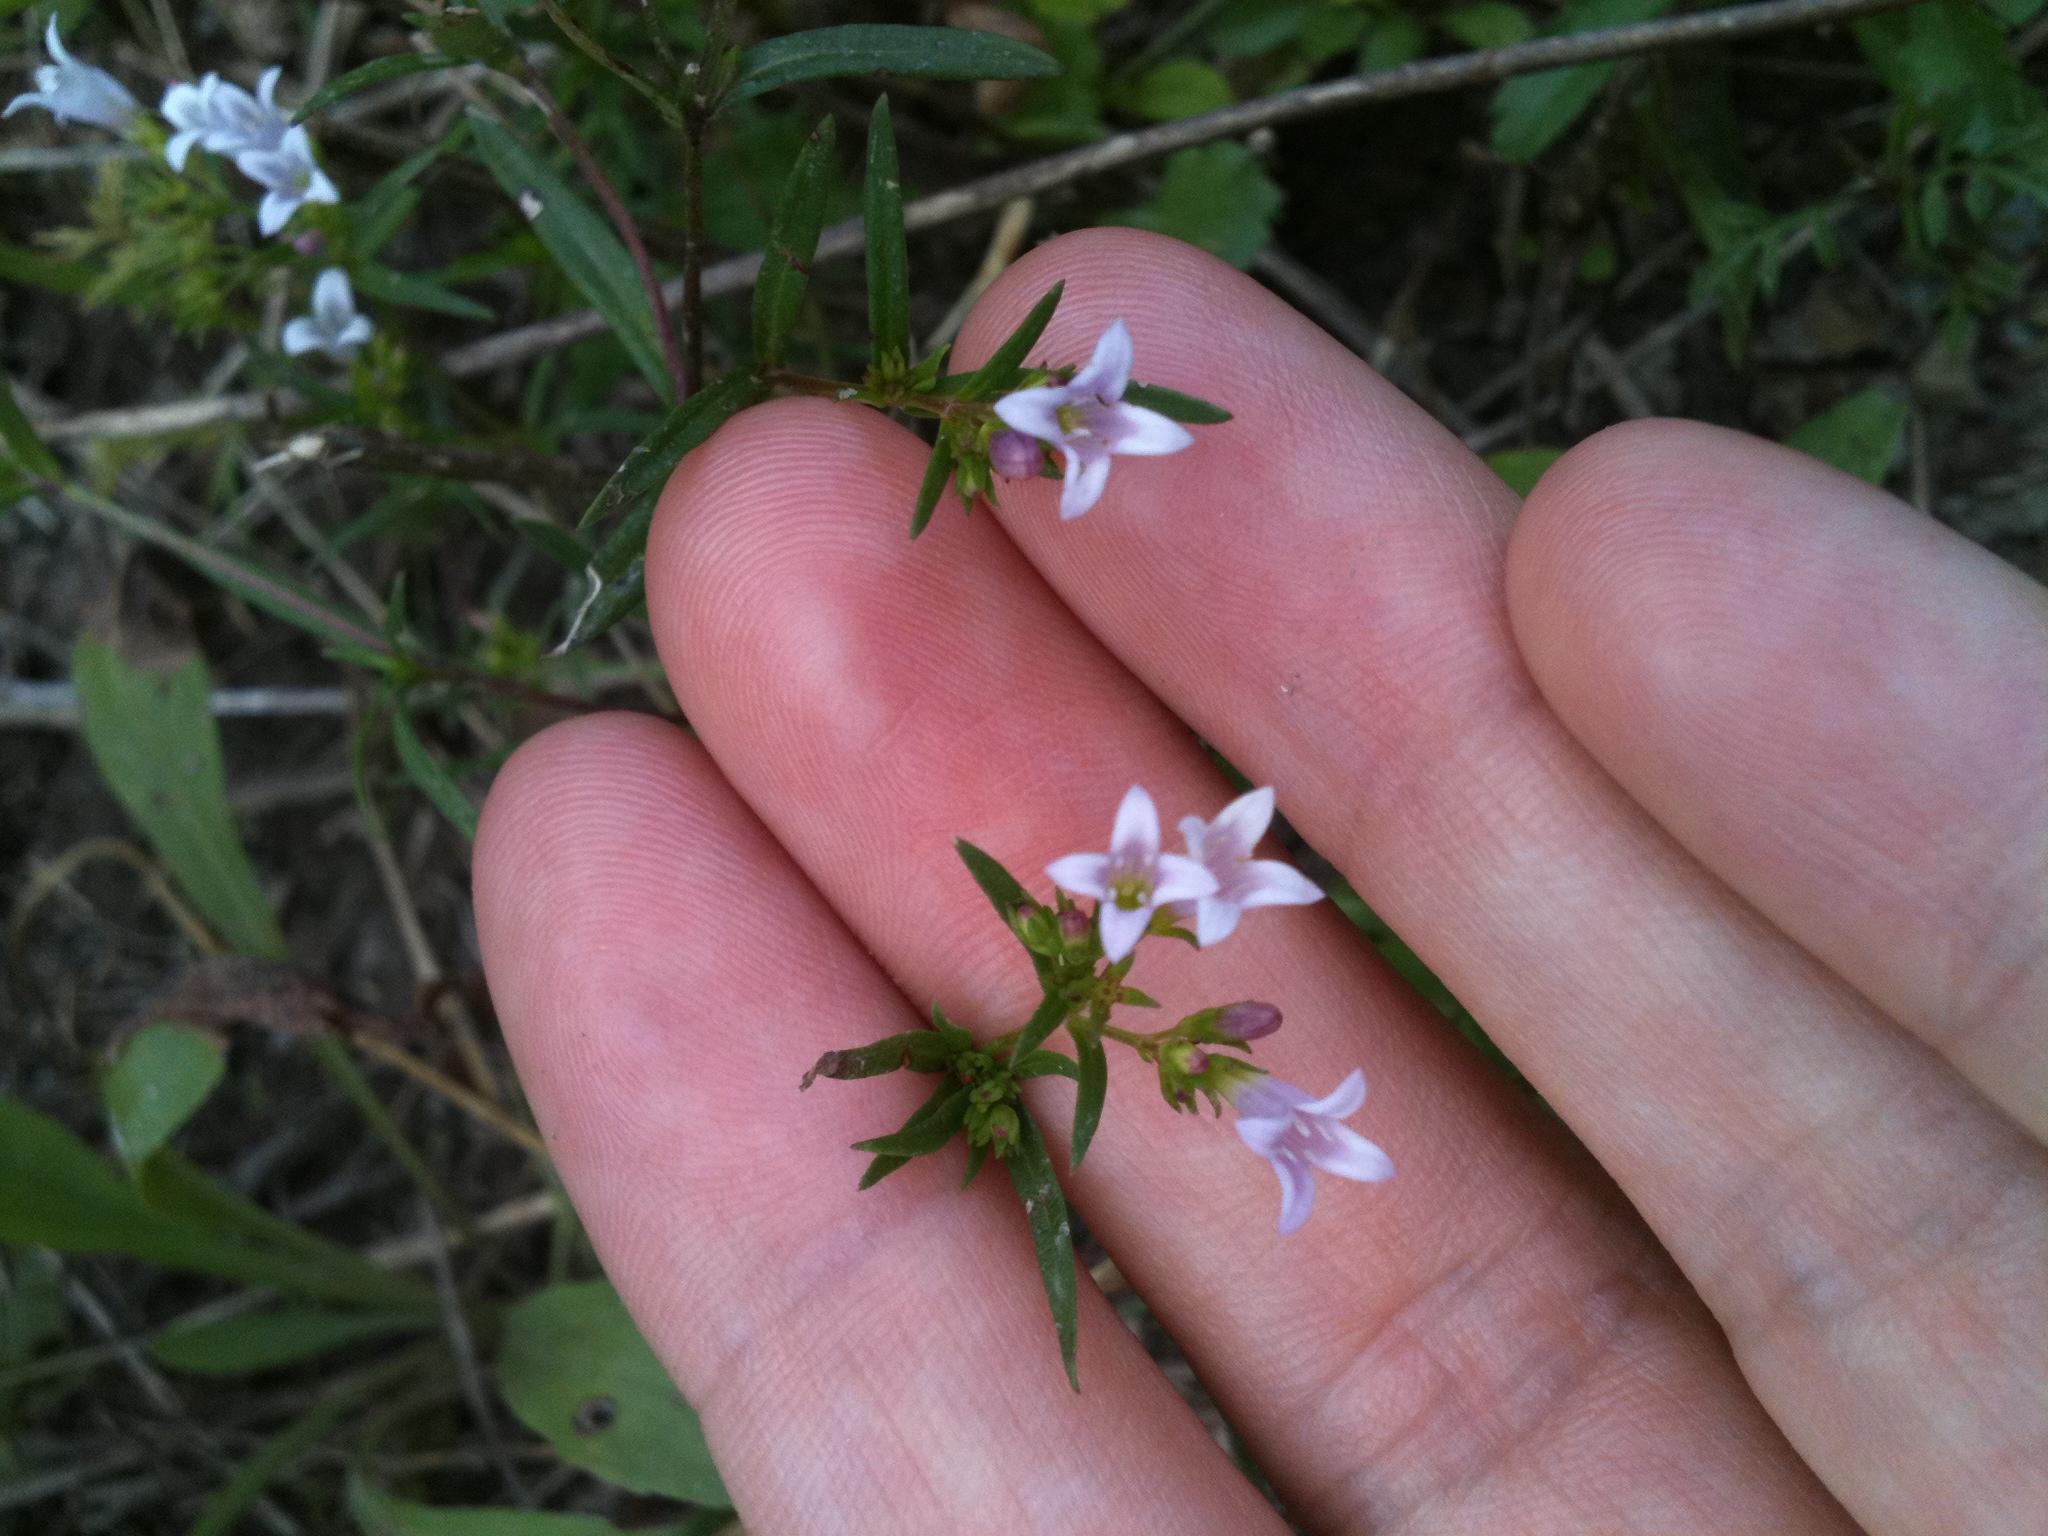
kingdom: Plantae
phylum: Tracheophyta
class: Magnoliopsida
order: Gentianales
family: Rubiaceae
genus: Houstonia
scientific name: Houstonia longifolia
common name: Long-leaved bluets
